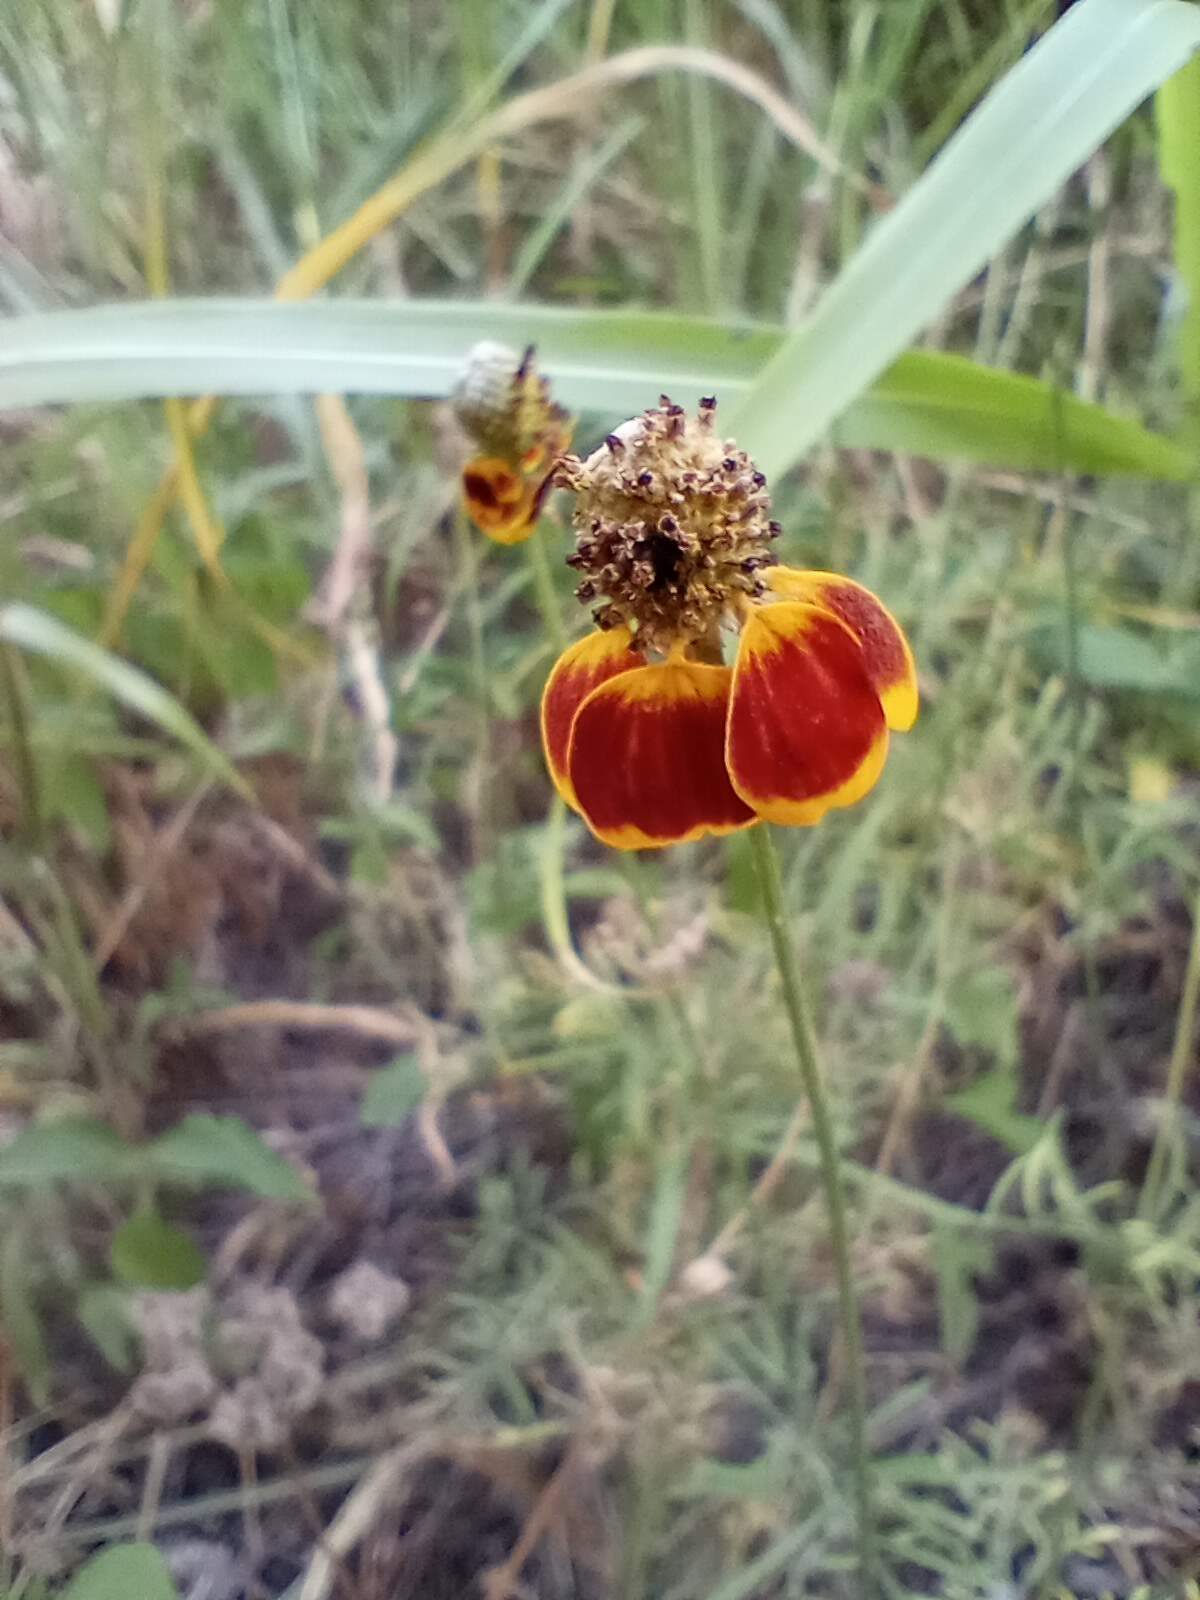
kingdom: Plantae
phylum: Tracheophyta
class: Magnoliopsida
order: Asterales
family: Asteraceae
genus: Ratibida
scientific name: Ratibida columnifera
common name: Prairie coneflower
